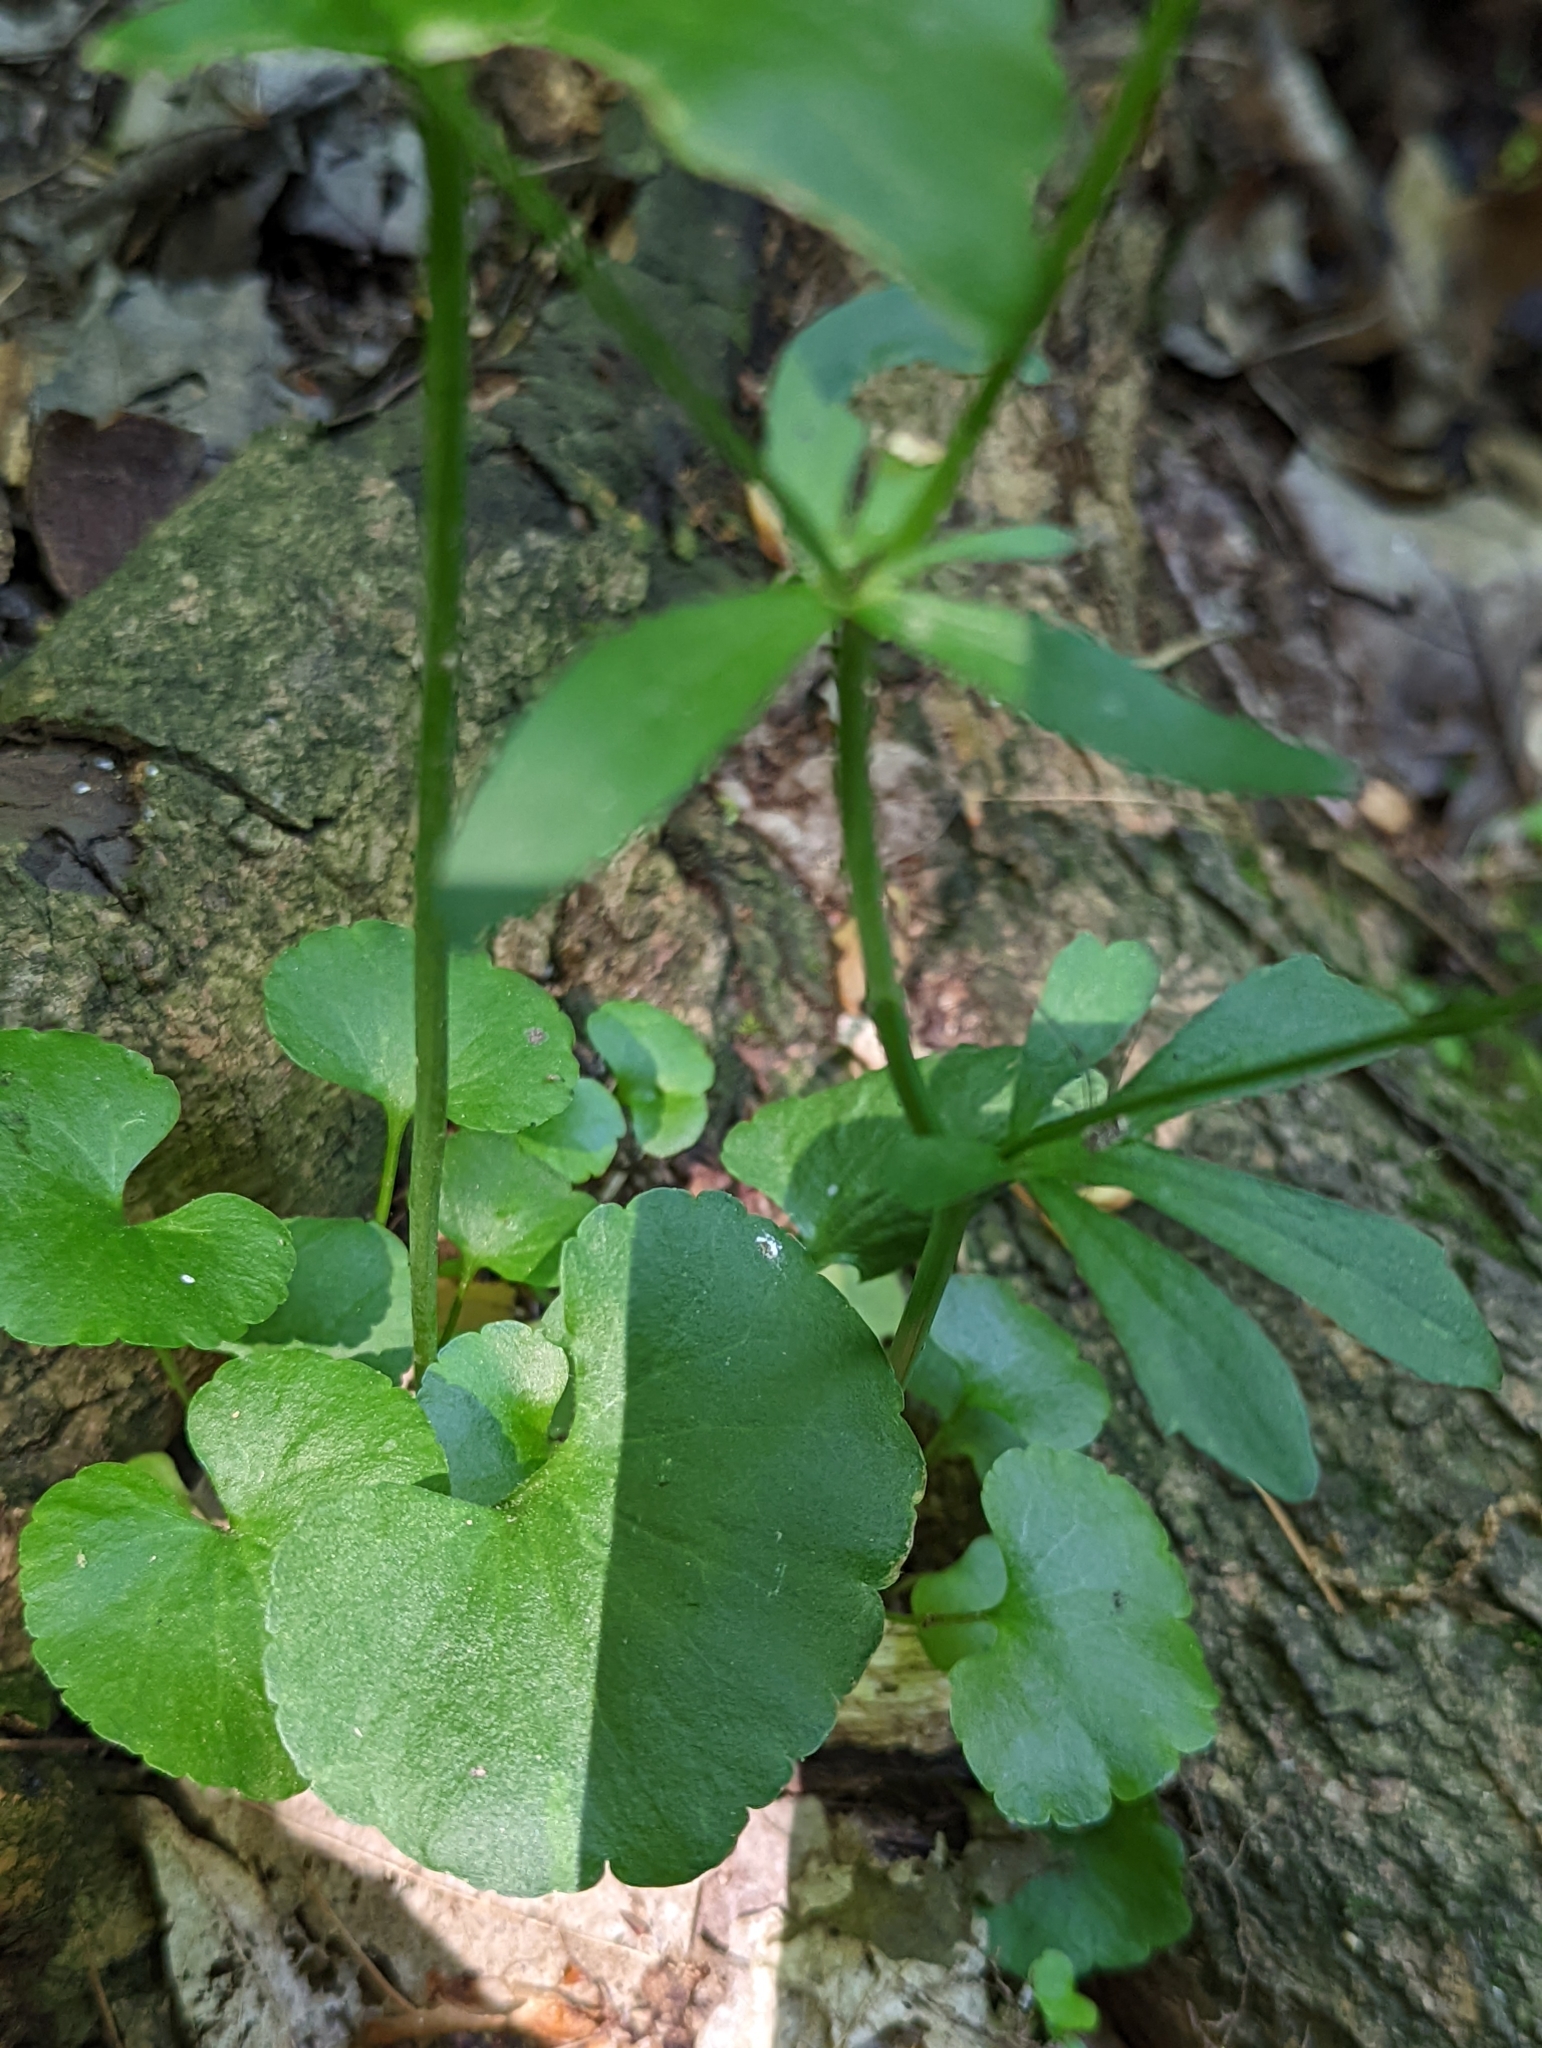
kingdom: Plantae
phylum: Tracheophyta
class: Magnoliopsida
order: Ranunculales
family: Ranunculaceae
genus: Ranunculus
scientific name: Ranunculus abortivus
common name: Early wood buttercup
